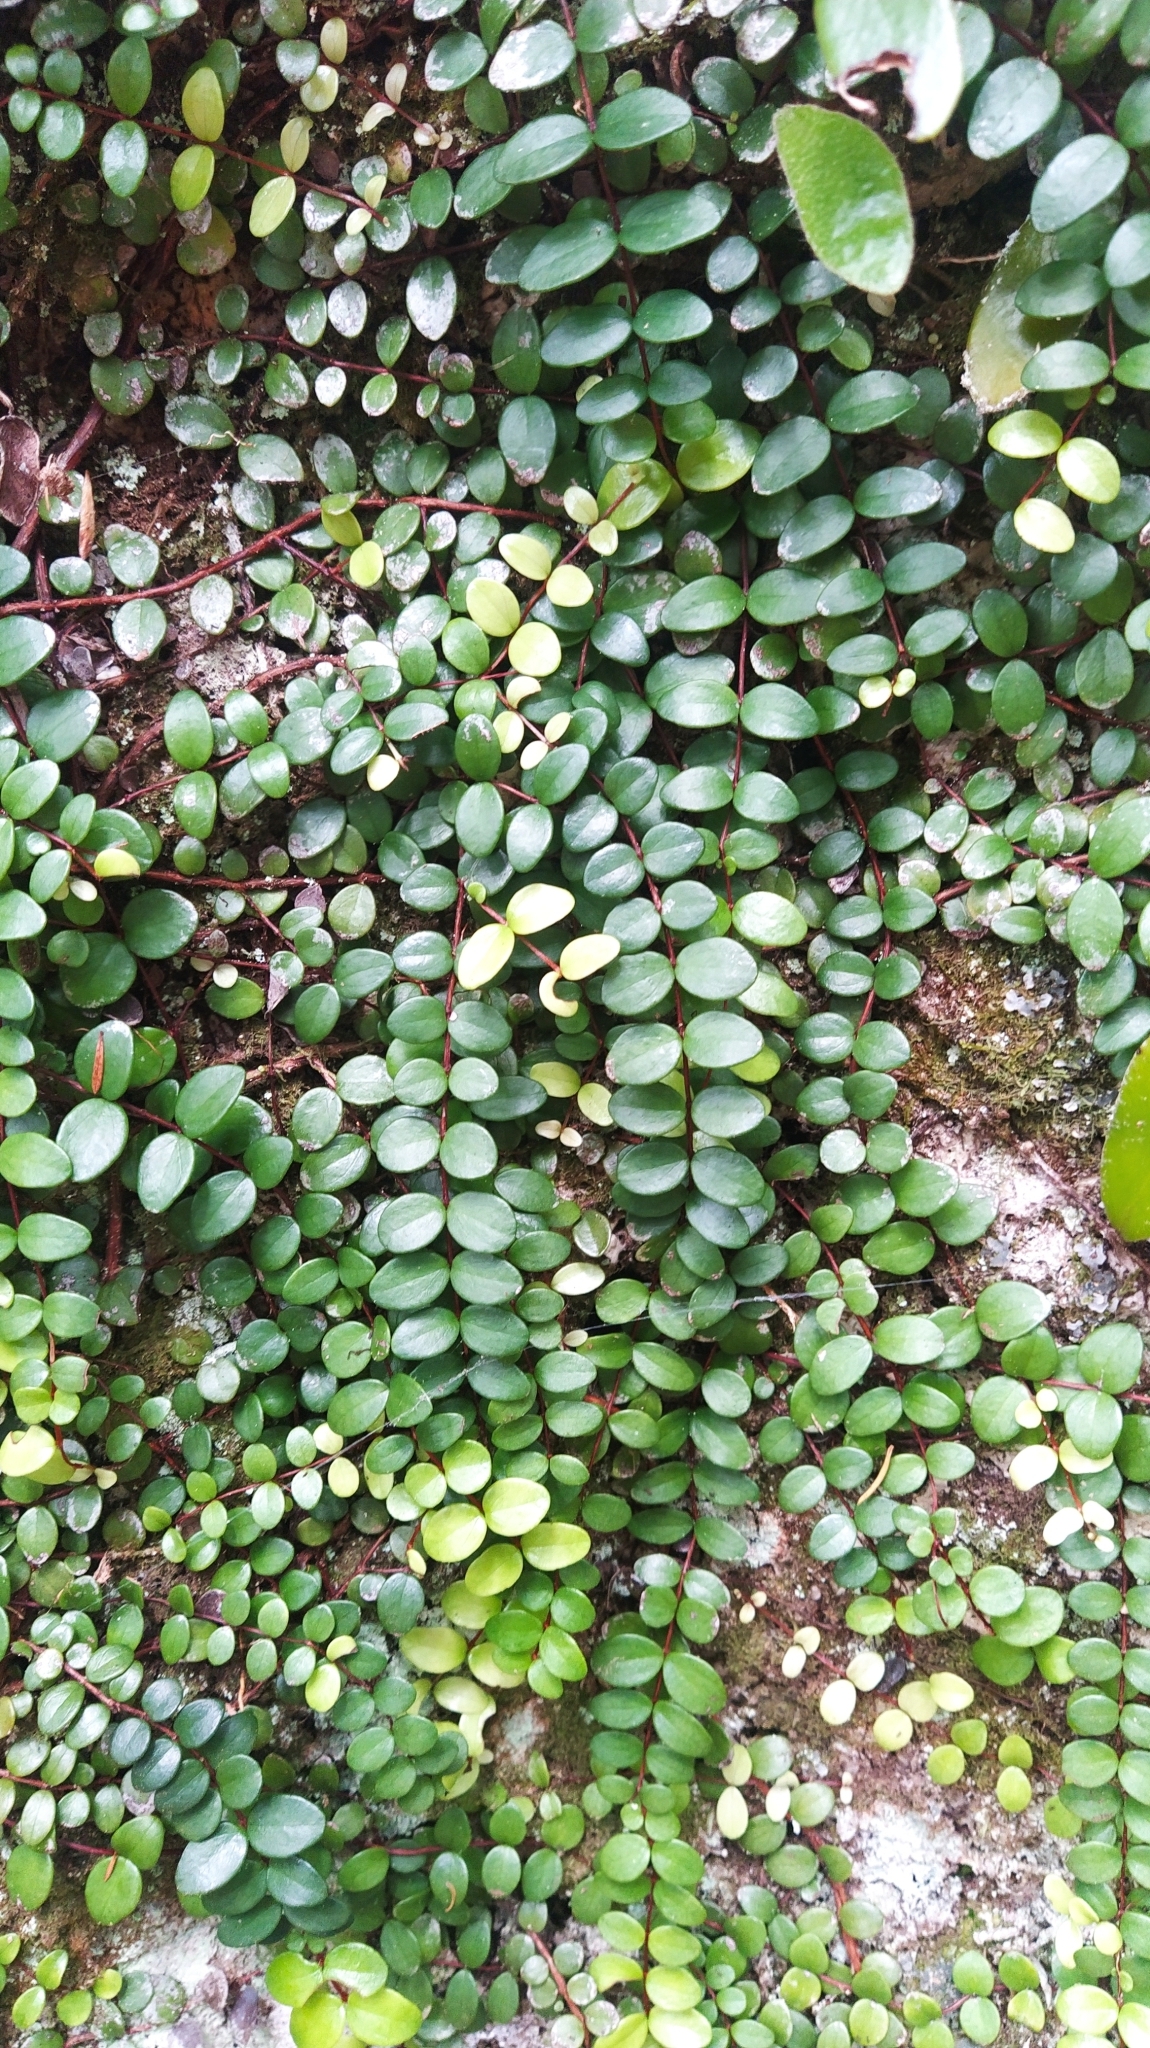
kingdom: Plantae
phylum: Tracheophyta
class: Magnoliopsida
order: Myrtales
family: Myrtaceae
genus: Metrosideros
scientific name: Metrosideros perforata
